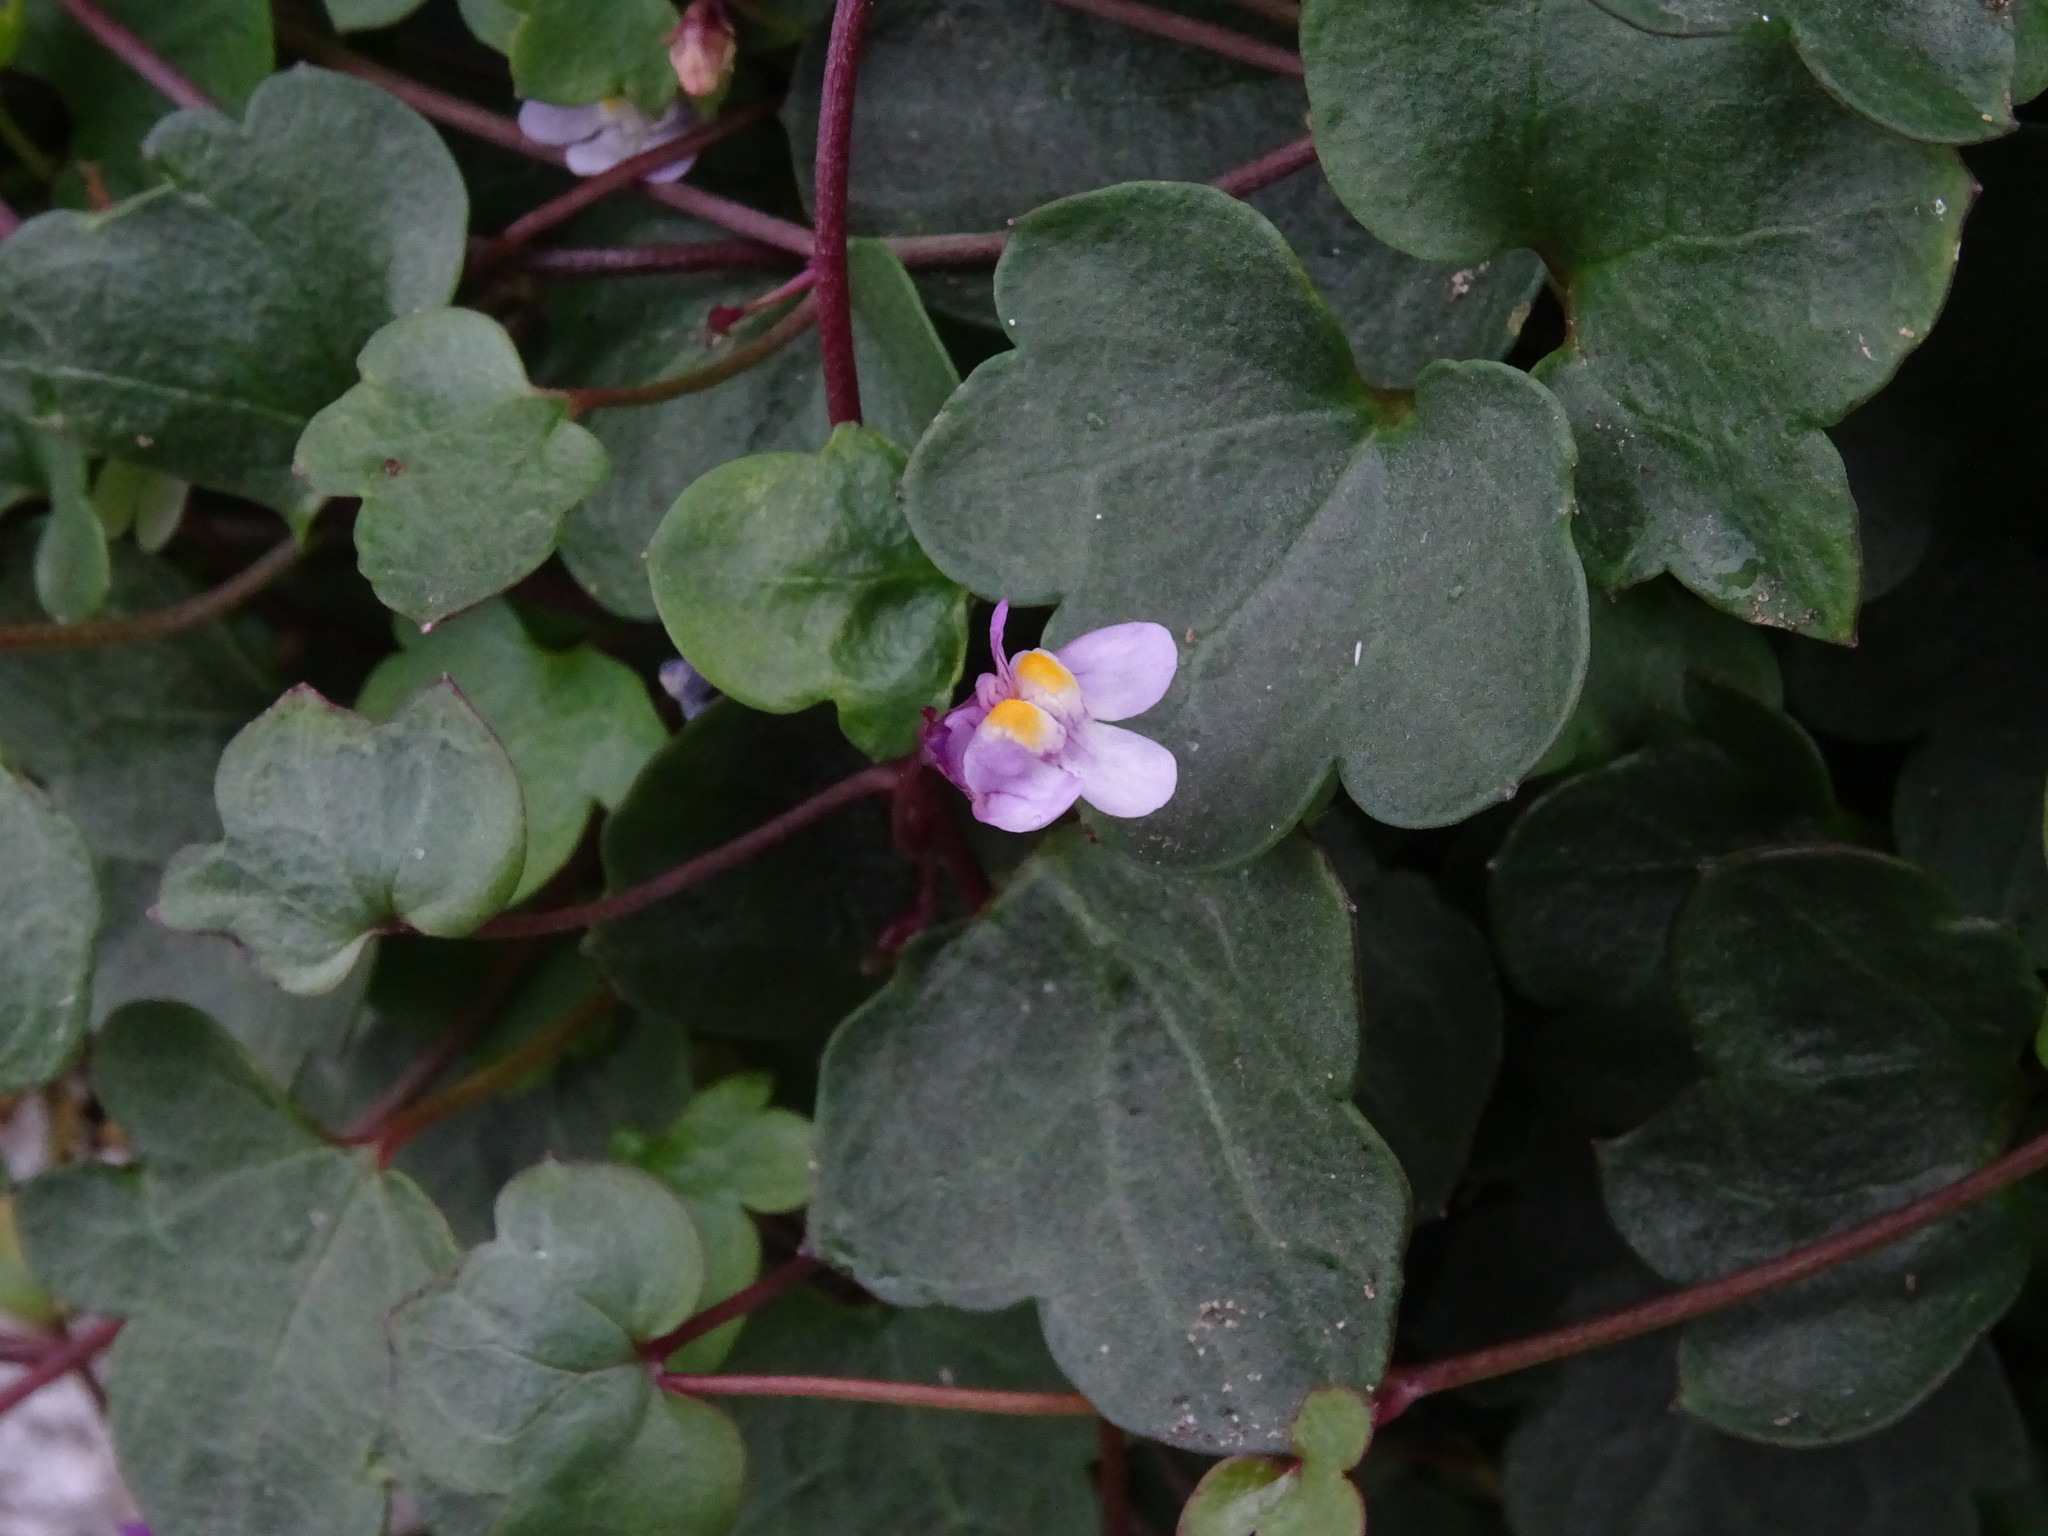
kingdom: Plantae
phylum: Tracheophyta
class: Magnoliopsida
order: Lamiales
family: Plantaginaceae
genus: Cymbalaria
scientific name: Cymbalaria muralis
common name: Ivy-leaved toadflax
